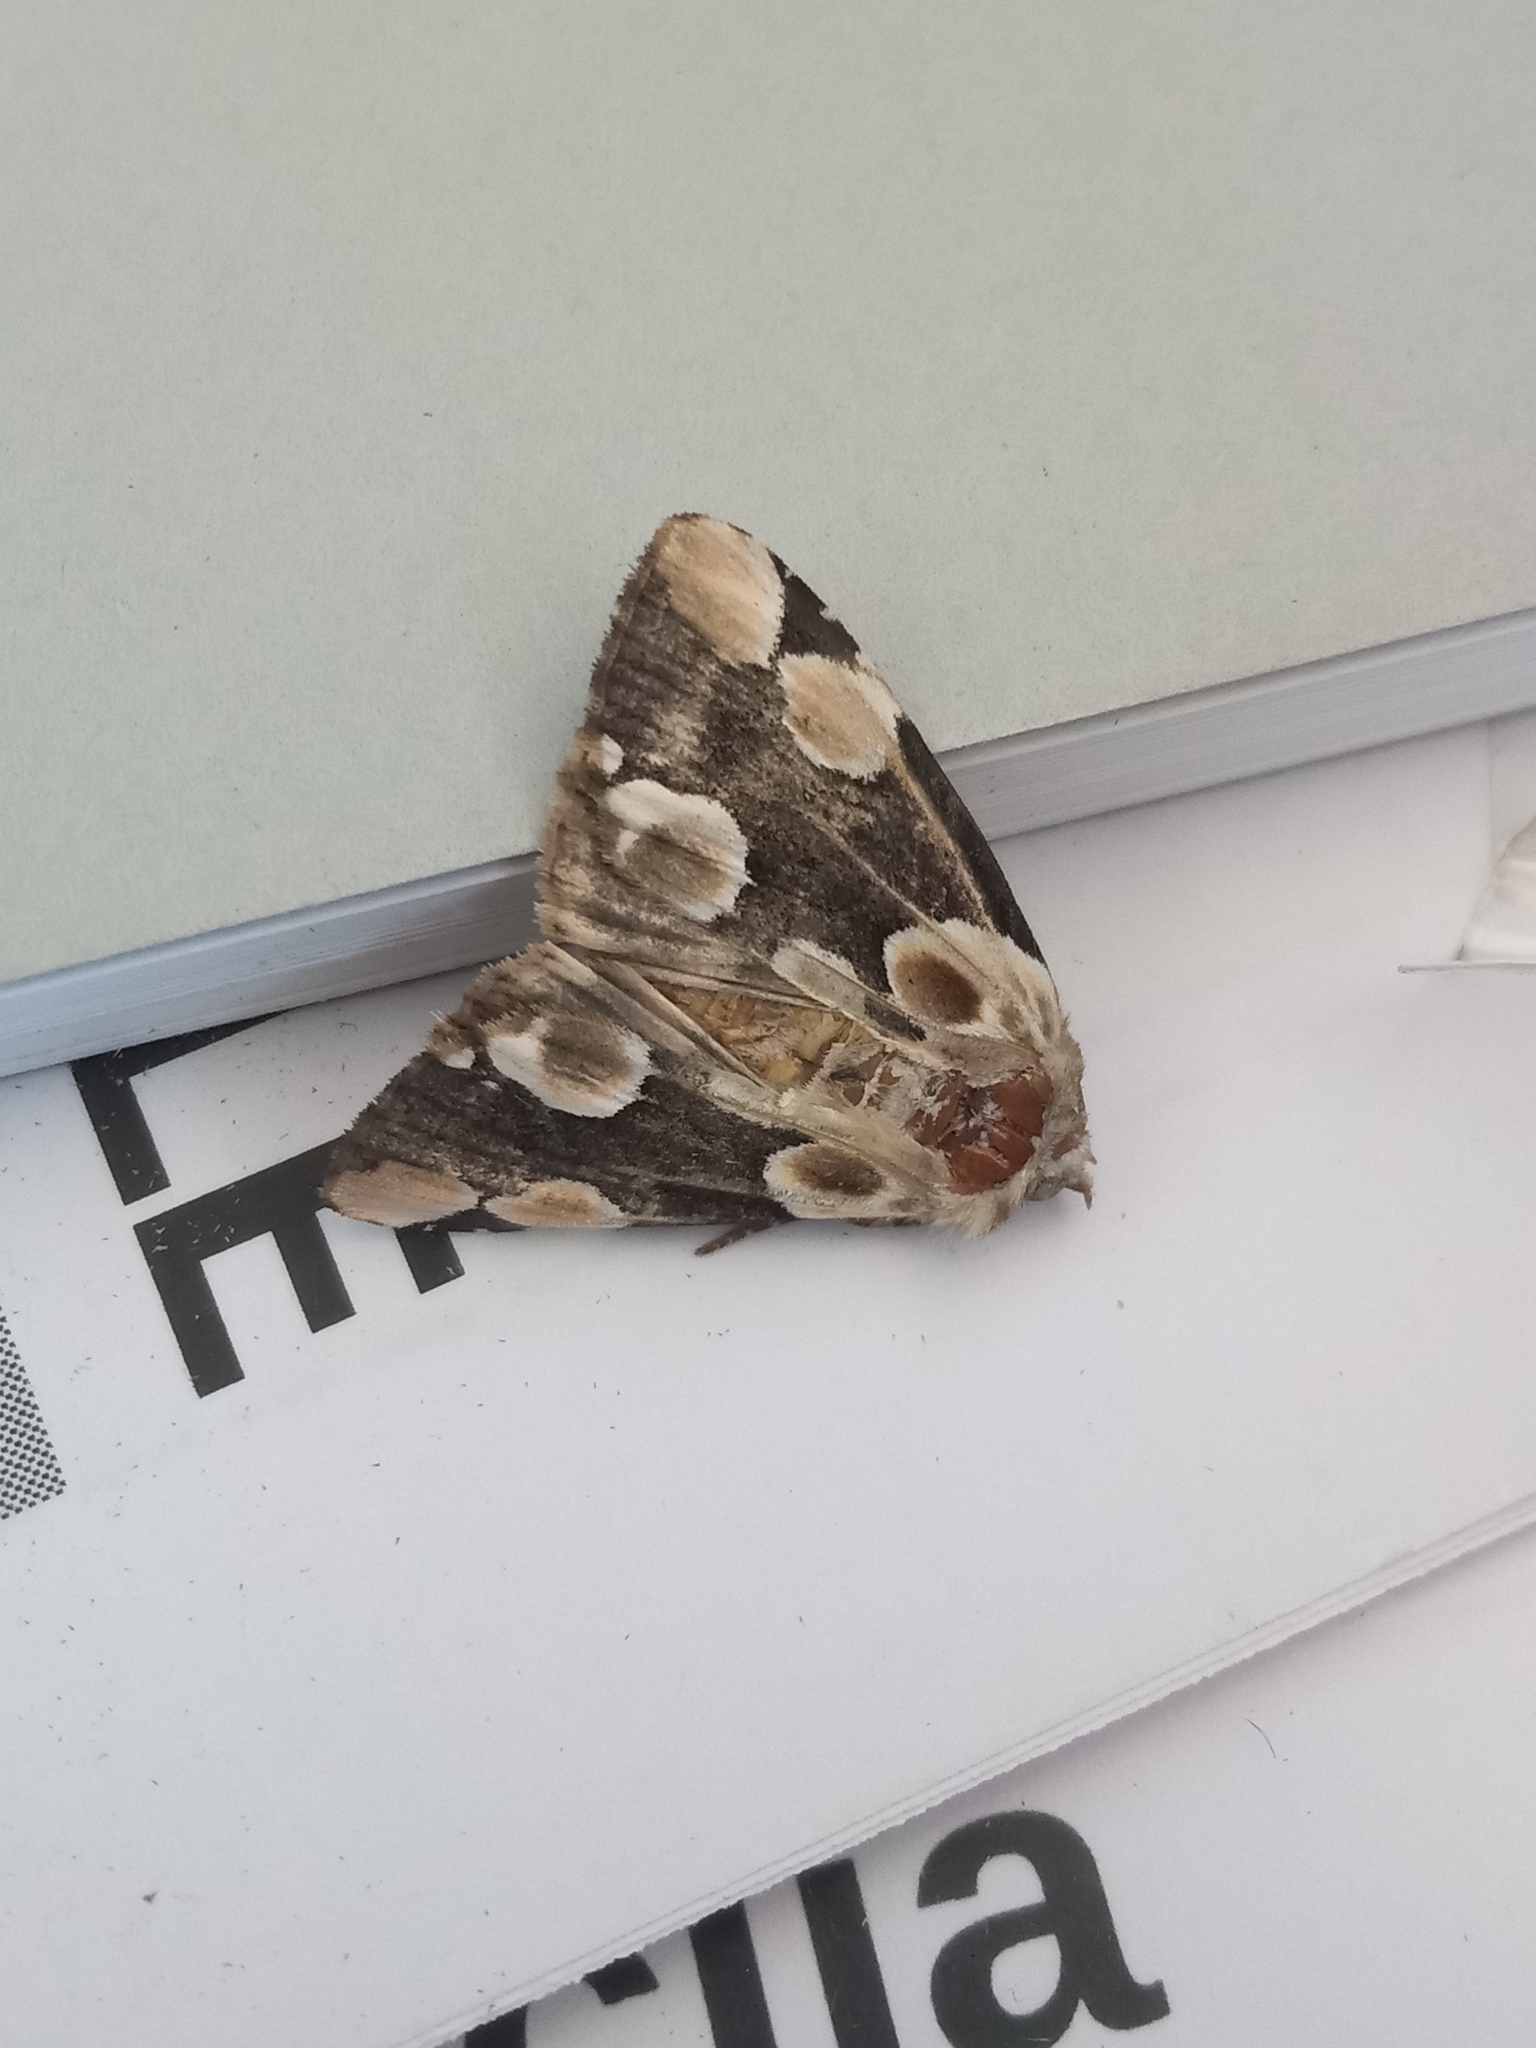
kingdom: Animalia
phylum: Arthropoda
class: Insecta
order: Lepidoptera
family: Drepanidae
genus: Thyatira
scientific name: Thyatira batis
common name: Peach blossom
